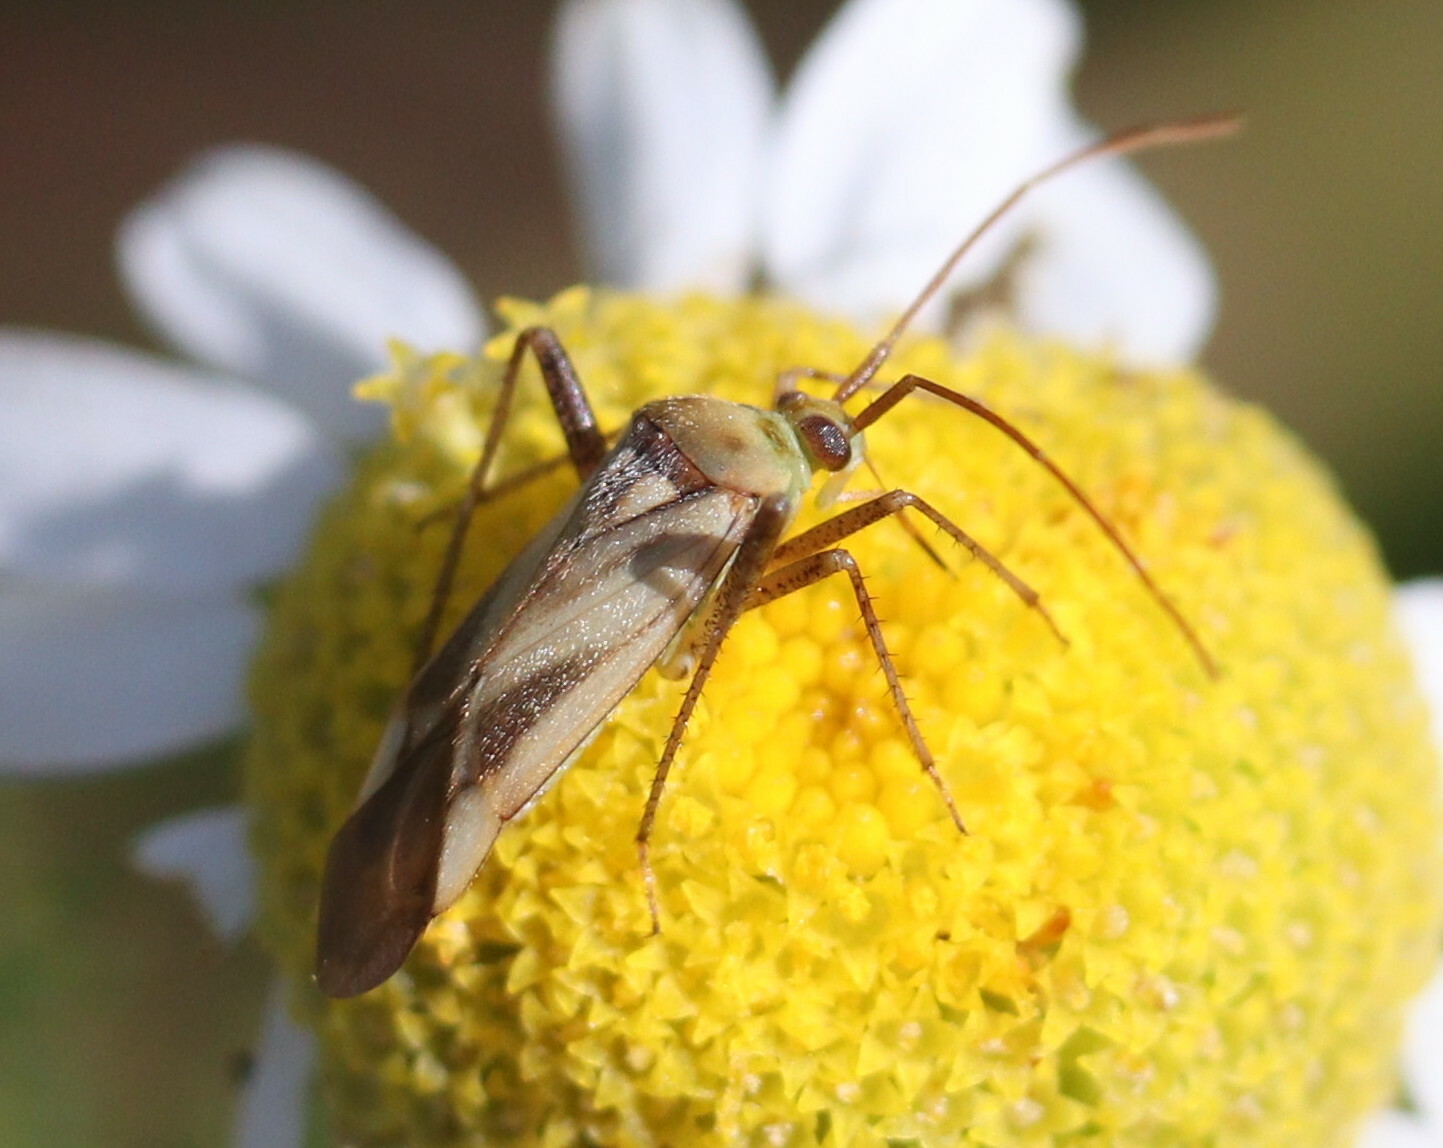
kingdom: Animalia
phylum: Arthropoda
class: Insecta
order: Hemiptera
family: Miridae
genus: Adelphocoris
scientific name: Adelphocoris lineolatus
